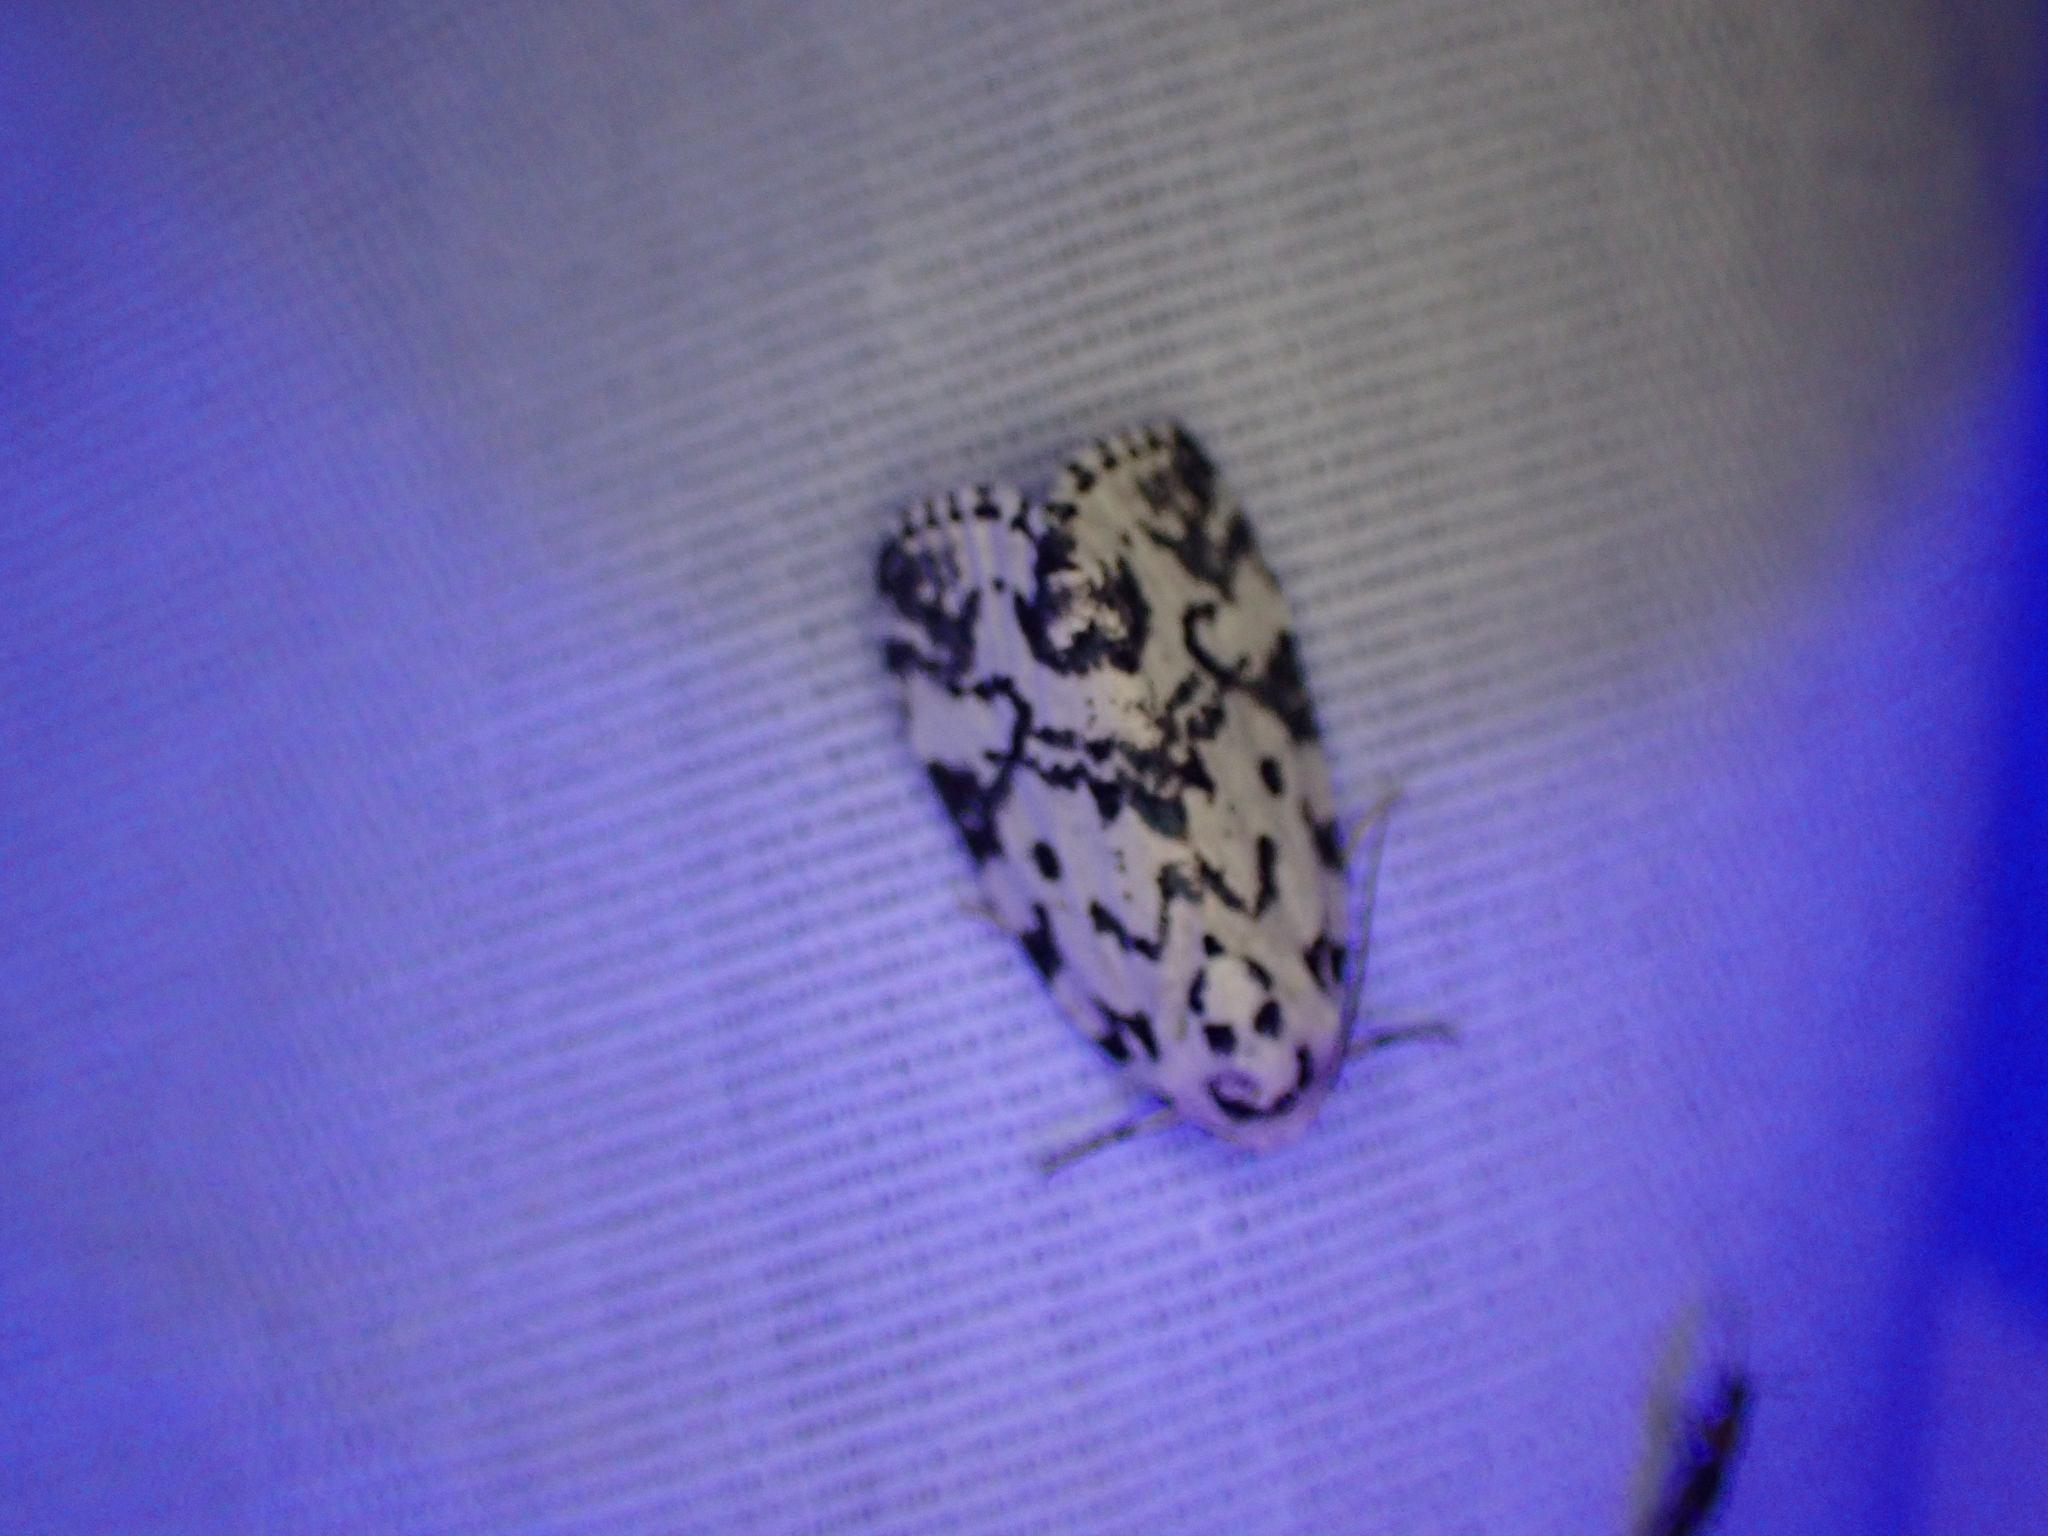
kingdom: Animalia
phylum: Arthropoda
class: Insecta
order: Lepidoptera
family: Noctuidae
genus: Polygrammate
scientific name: Polygrammate hebraeicum
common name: Hebrew moth
